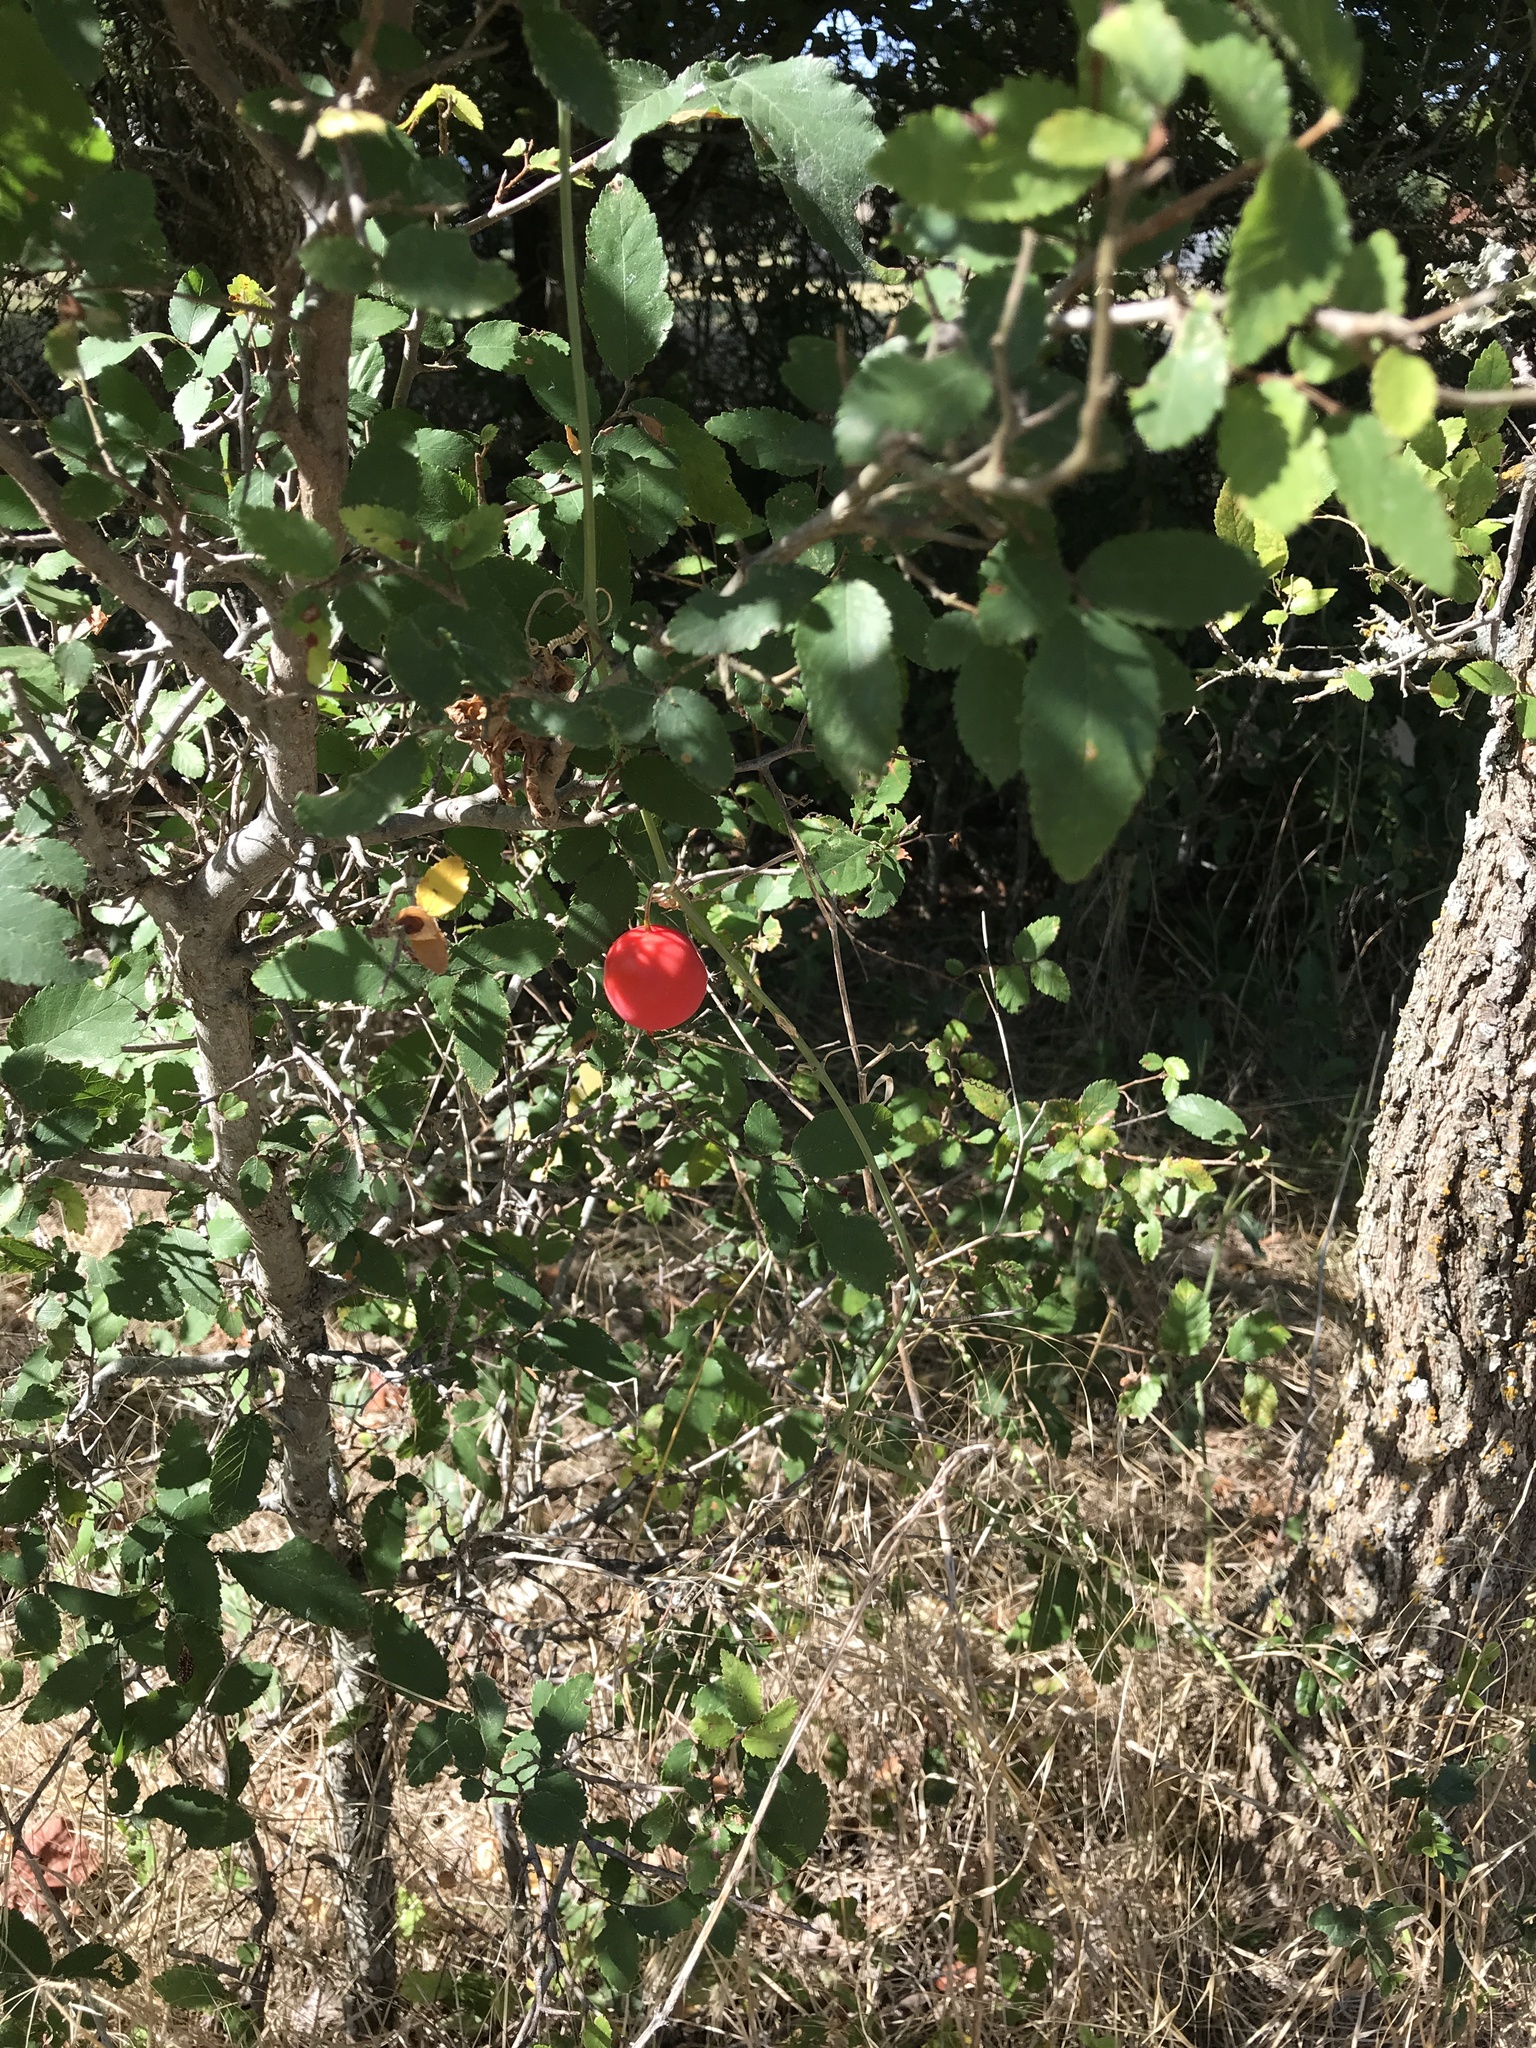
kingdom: Plantae
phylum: Tracheophyta
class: Magnoliopsida
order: Cucurbitales
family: Cucurbitaceae
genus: Ibervillea
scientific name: Ibervillea lindheimeri
